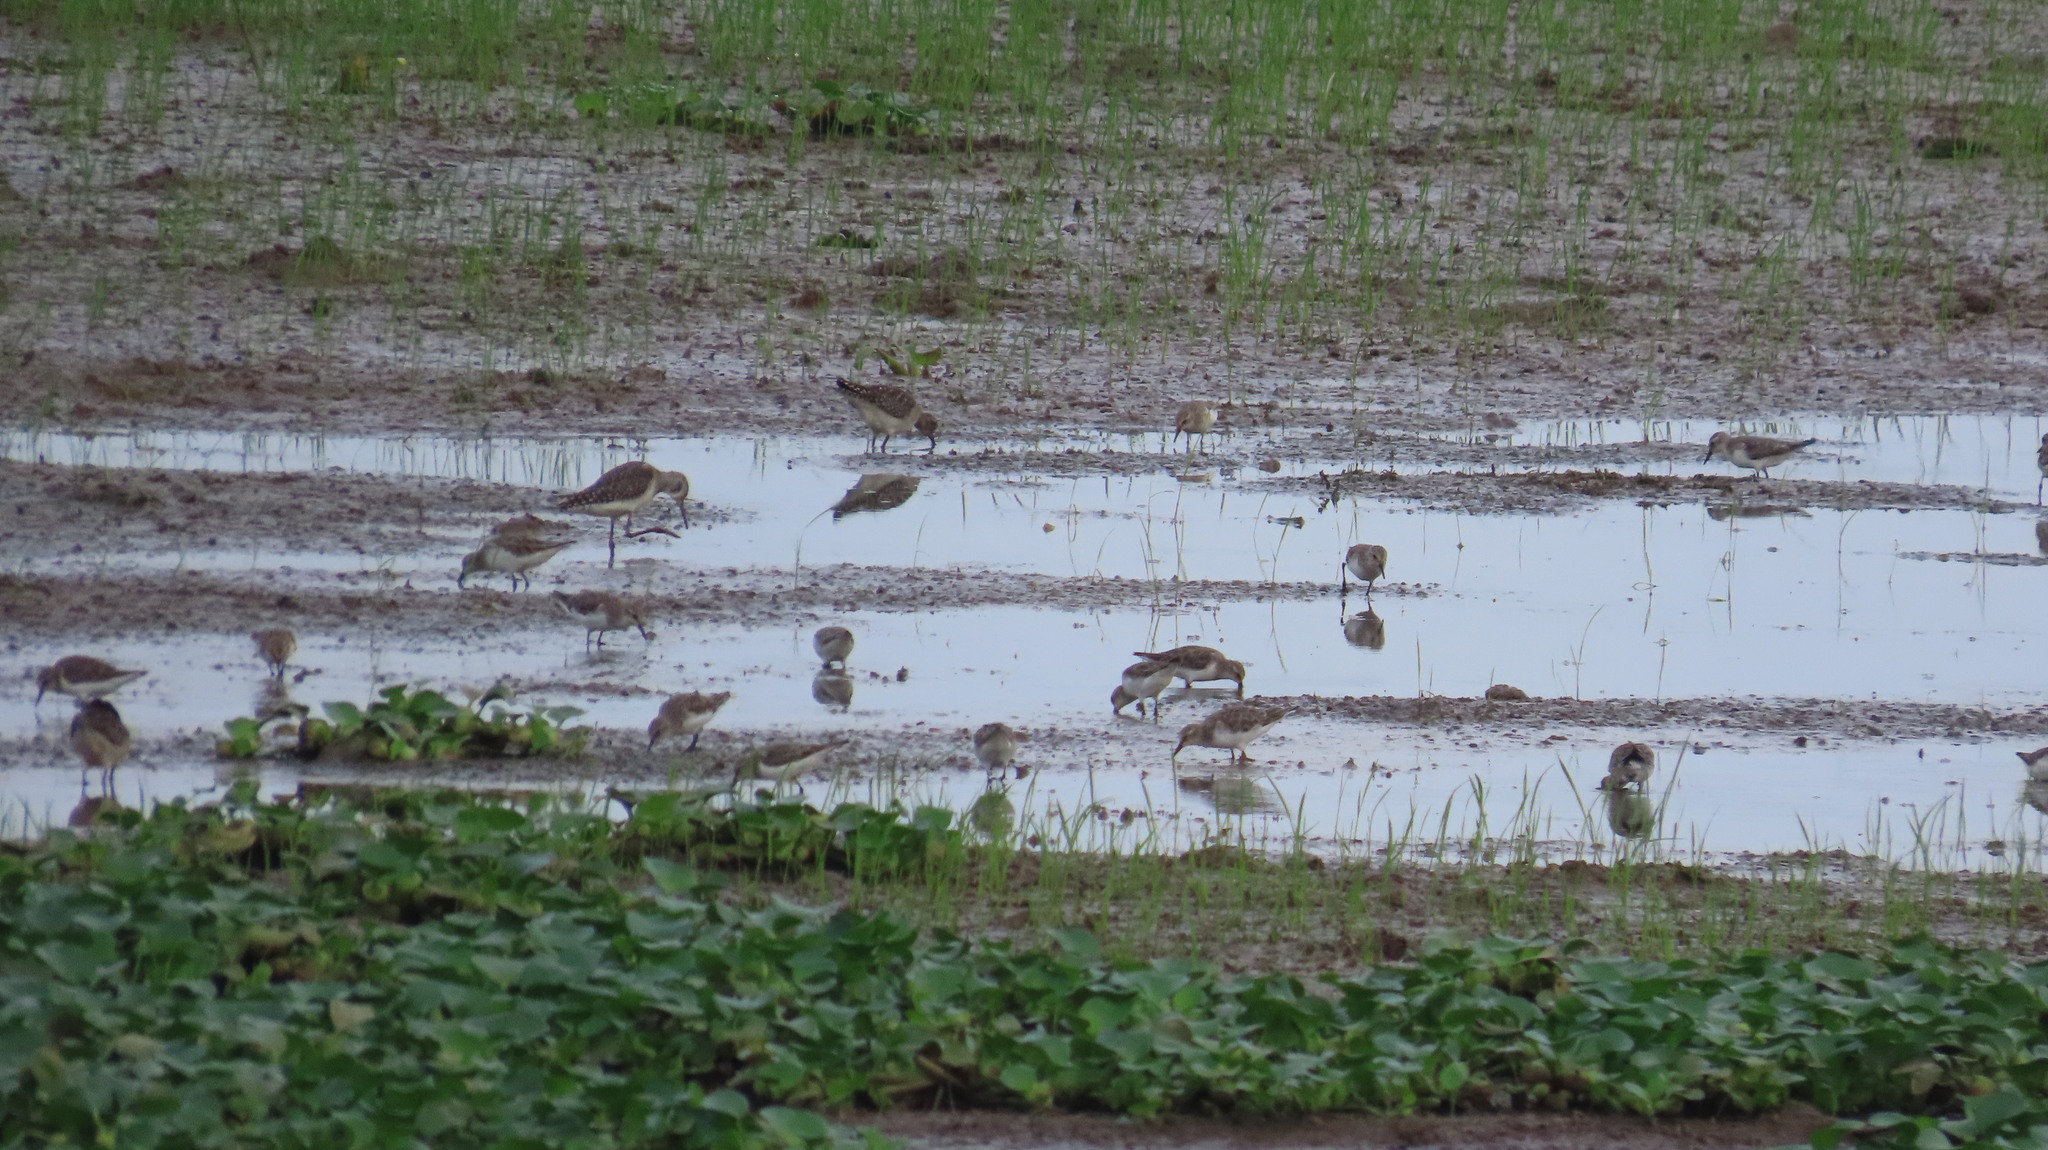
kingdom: Animalia
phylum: Chordata
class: Aves
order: Charadriiformes
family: Scolopacidae
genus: Tringa
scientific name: Tringa glareola
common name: Wood sandpiper
